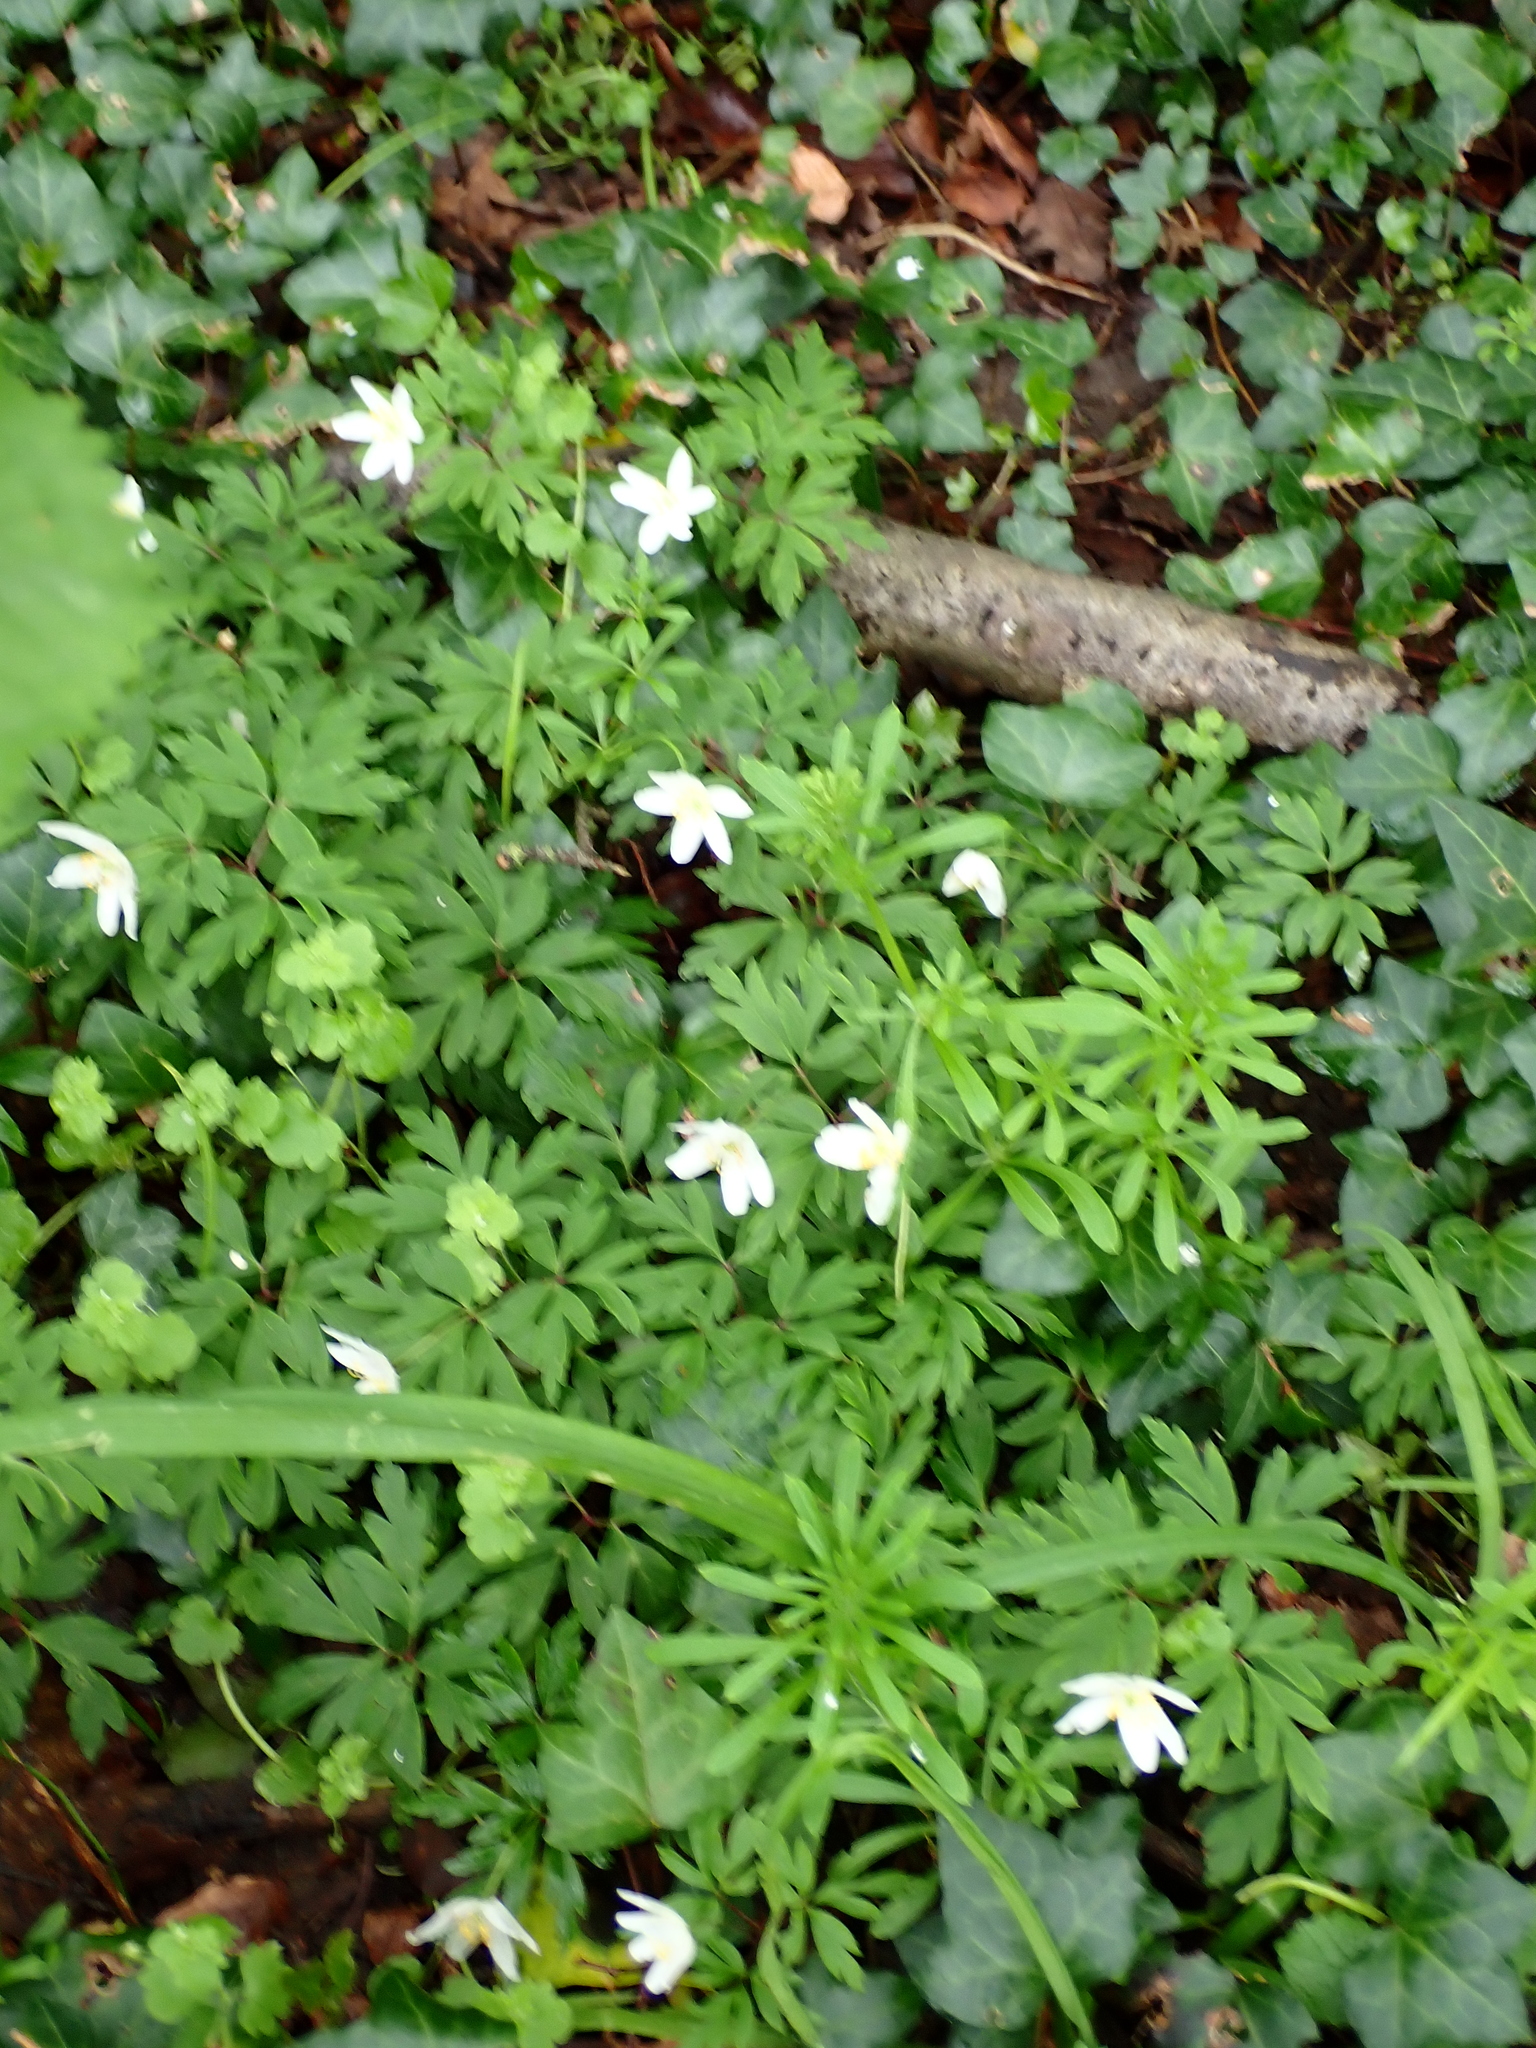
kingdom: Plantae
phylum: Tracheophyta
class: Magnoliopsida
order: Ranunculales
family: Ranunculaceae
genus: Anemone
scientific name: Anemone nemorosa
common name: Wood anemone
